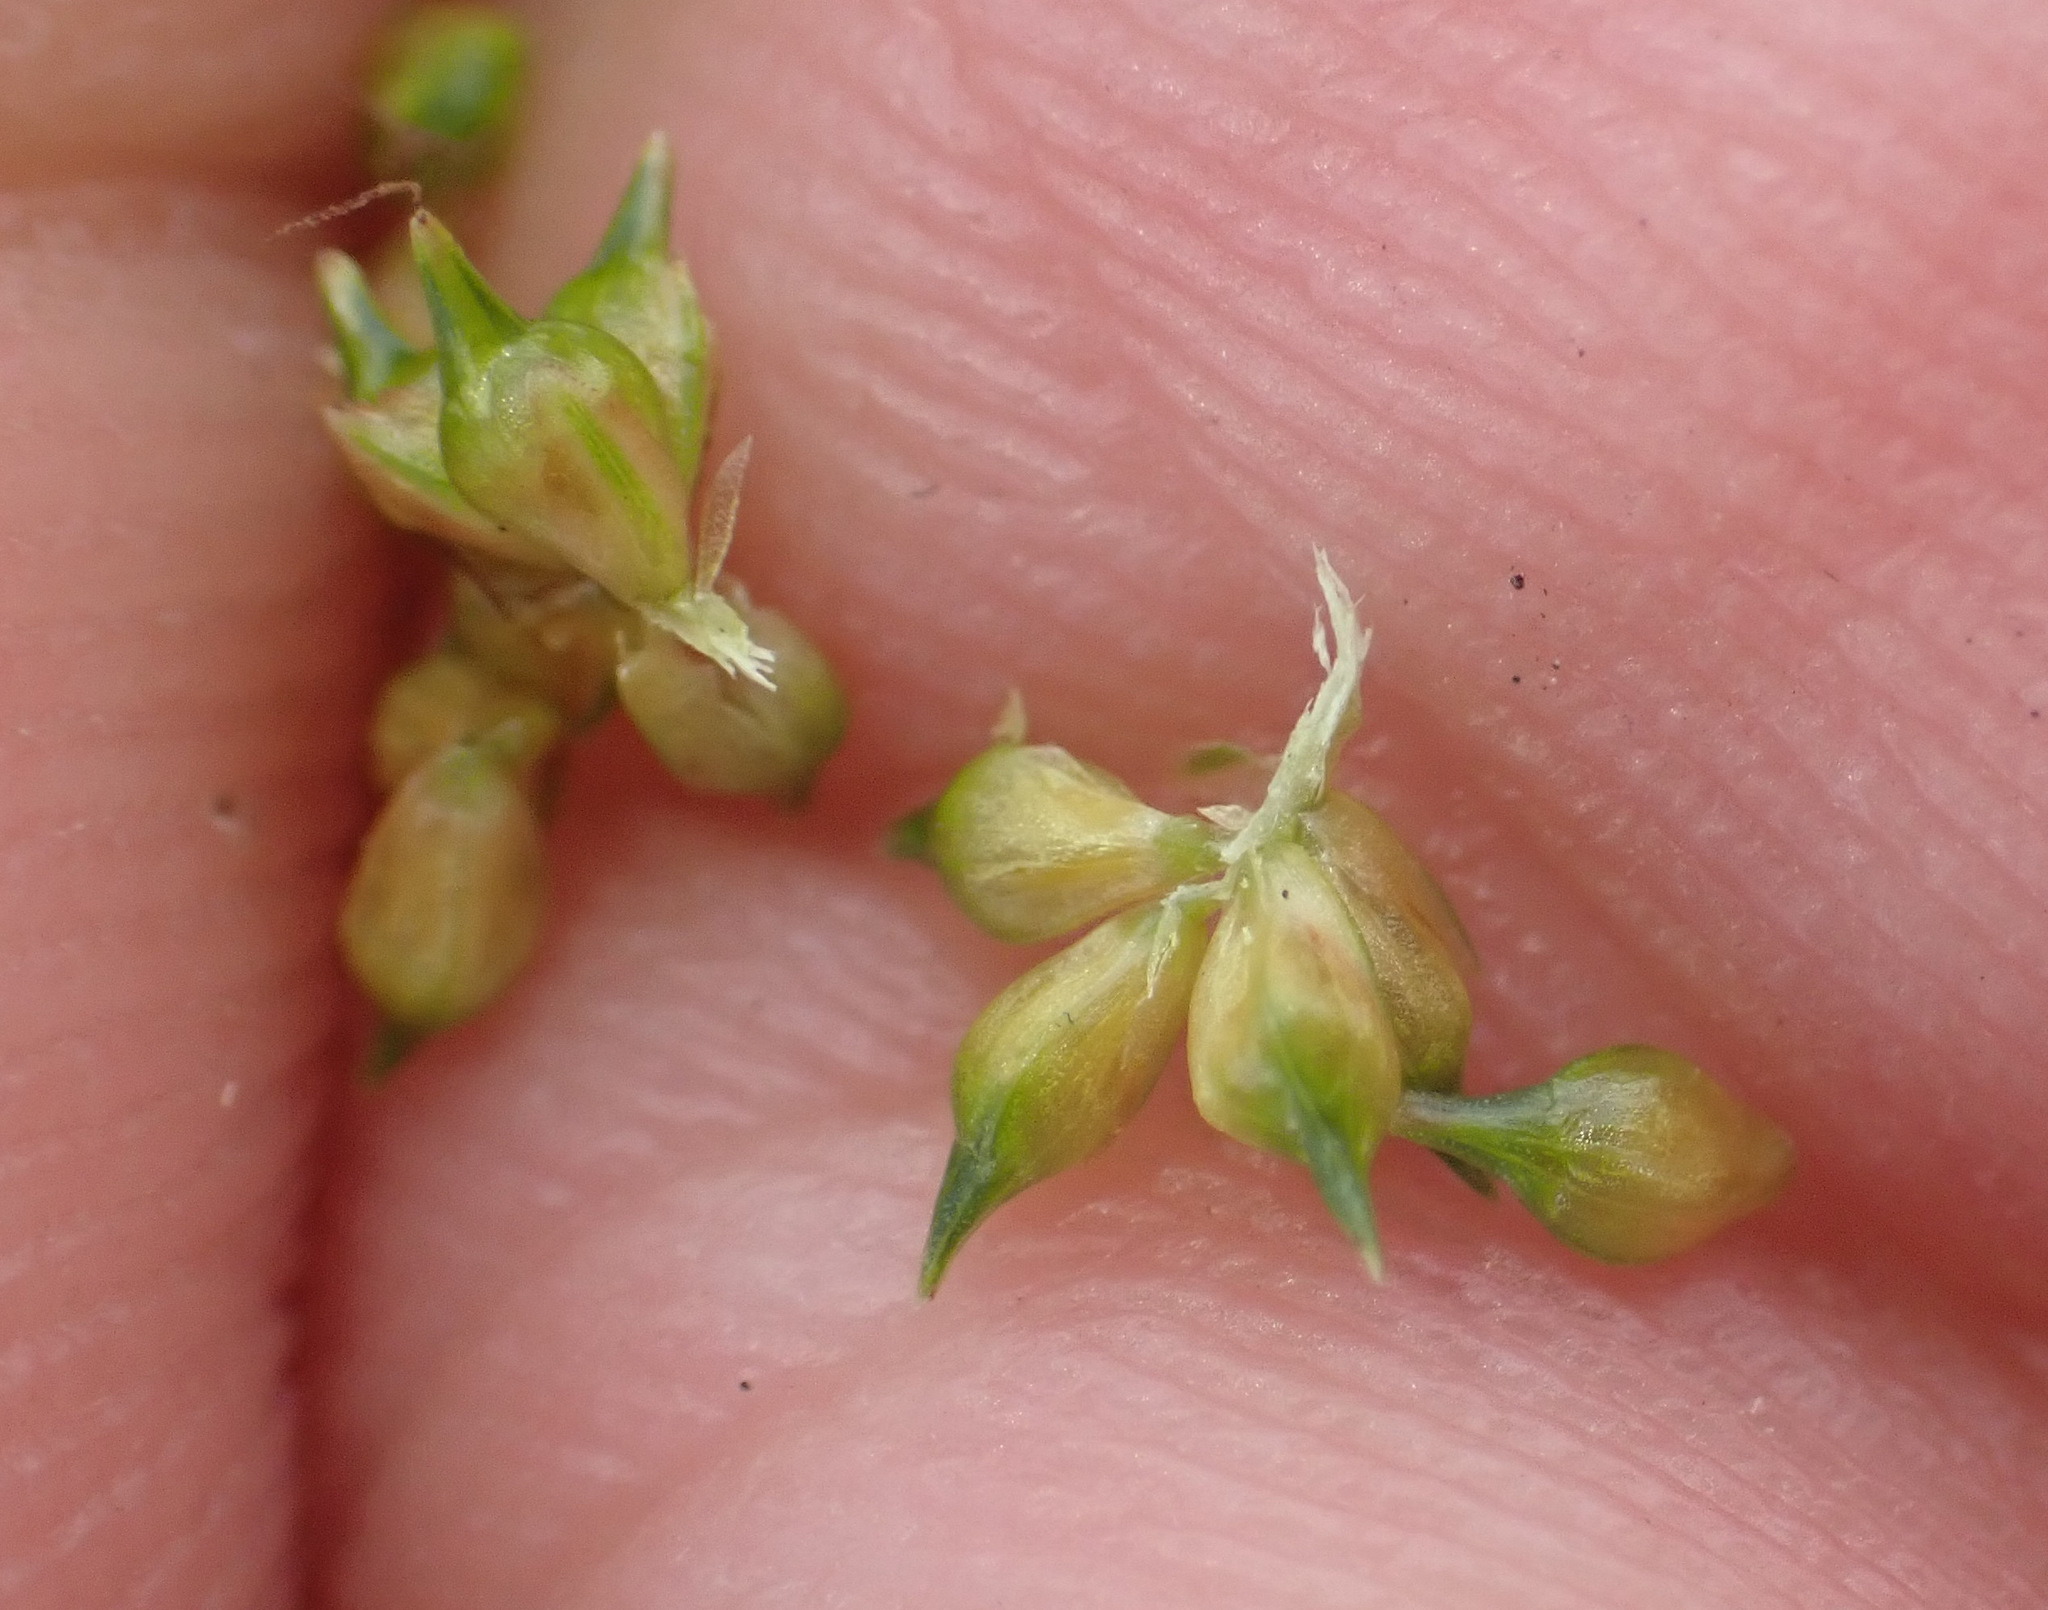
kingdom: Plantae
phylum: Tracheophyta
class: Liliopsida
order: Poales
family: Cyperaceae
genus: Carex
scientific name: Carex
